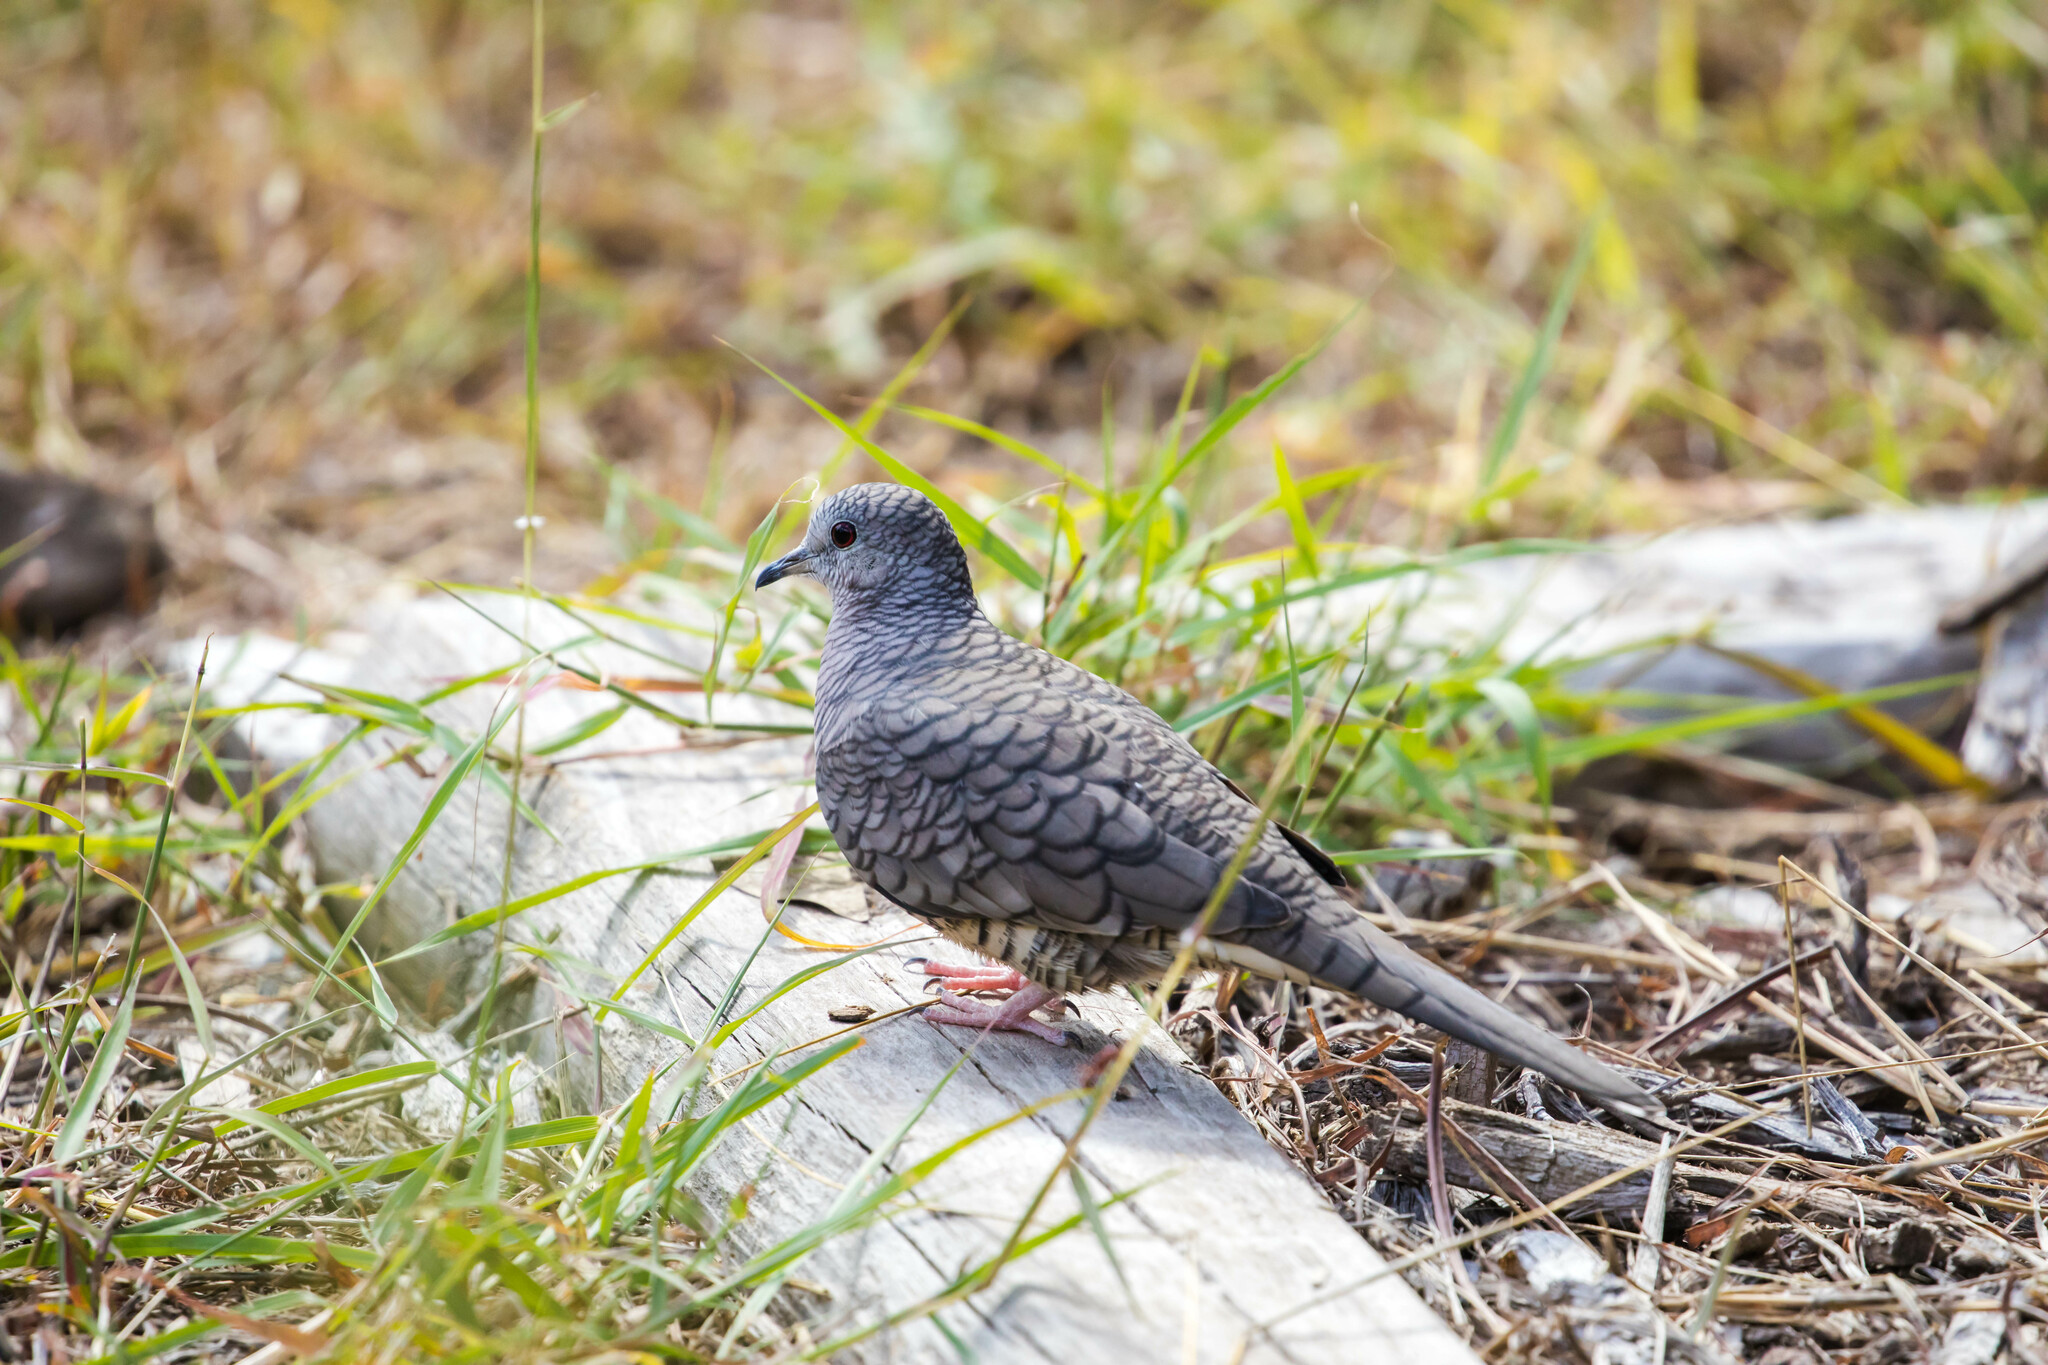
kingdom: Animalia
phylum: Chordata
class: Aves
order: Columbiformes
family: Columbidae
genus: Columbina
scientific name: Columbina inca
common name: Inca dove
